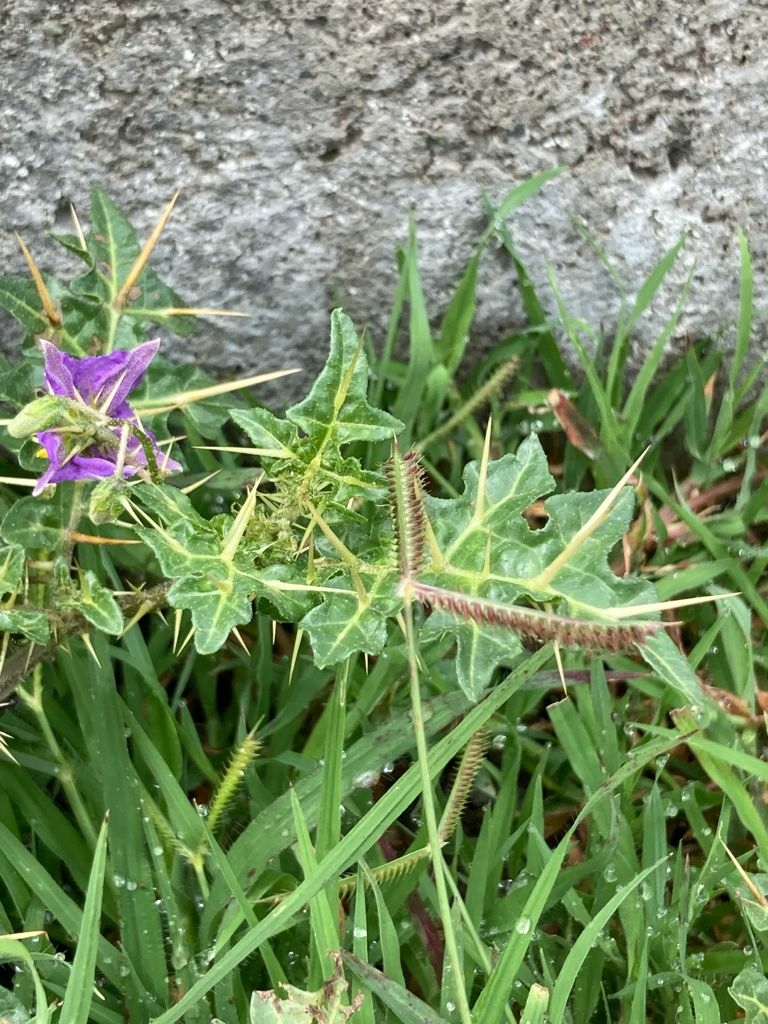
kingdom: Plantae
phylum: Tracheophyta
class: Magnoliopsida
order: Solanales
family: Solanaceae
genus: Solanum
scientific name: Solanum virginianum
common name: Surattense nightshade
